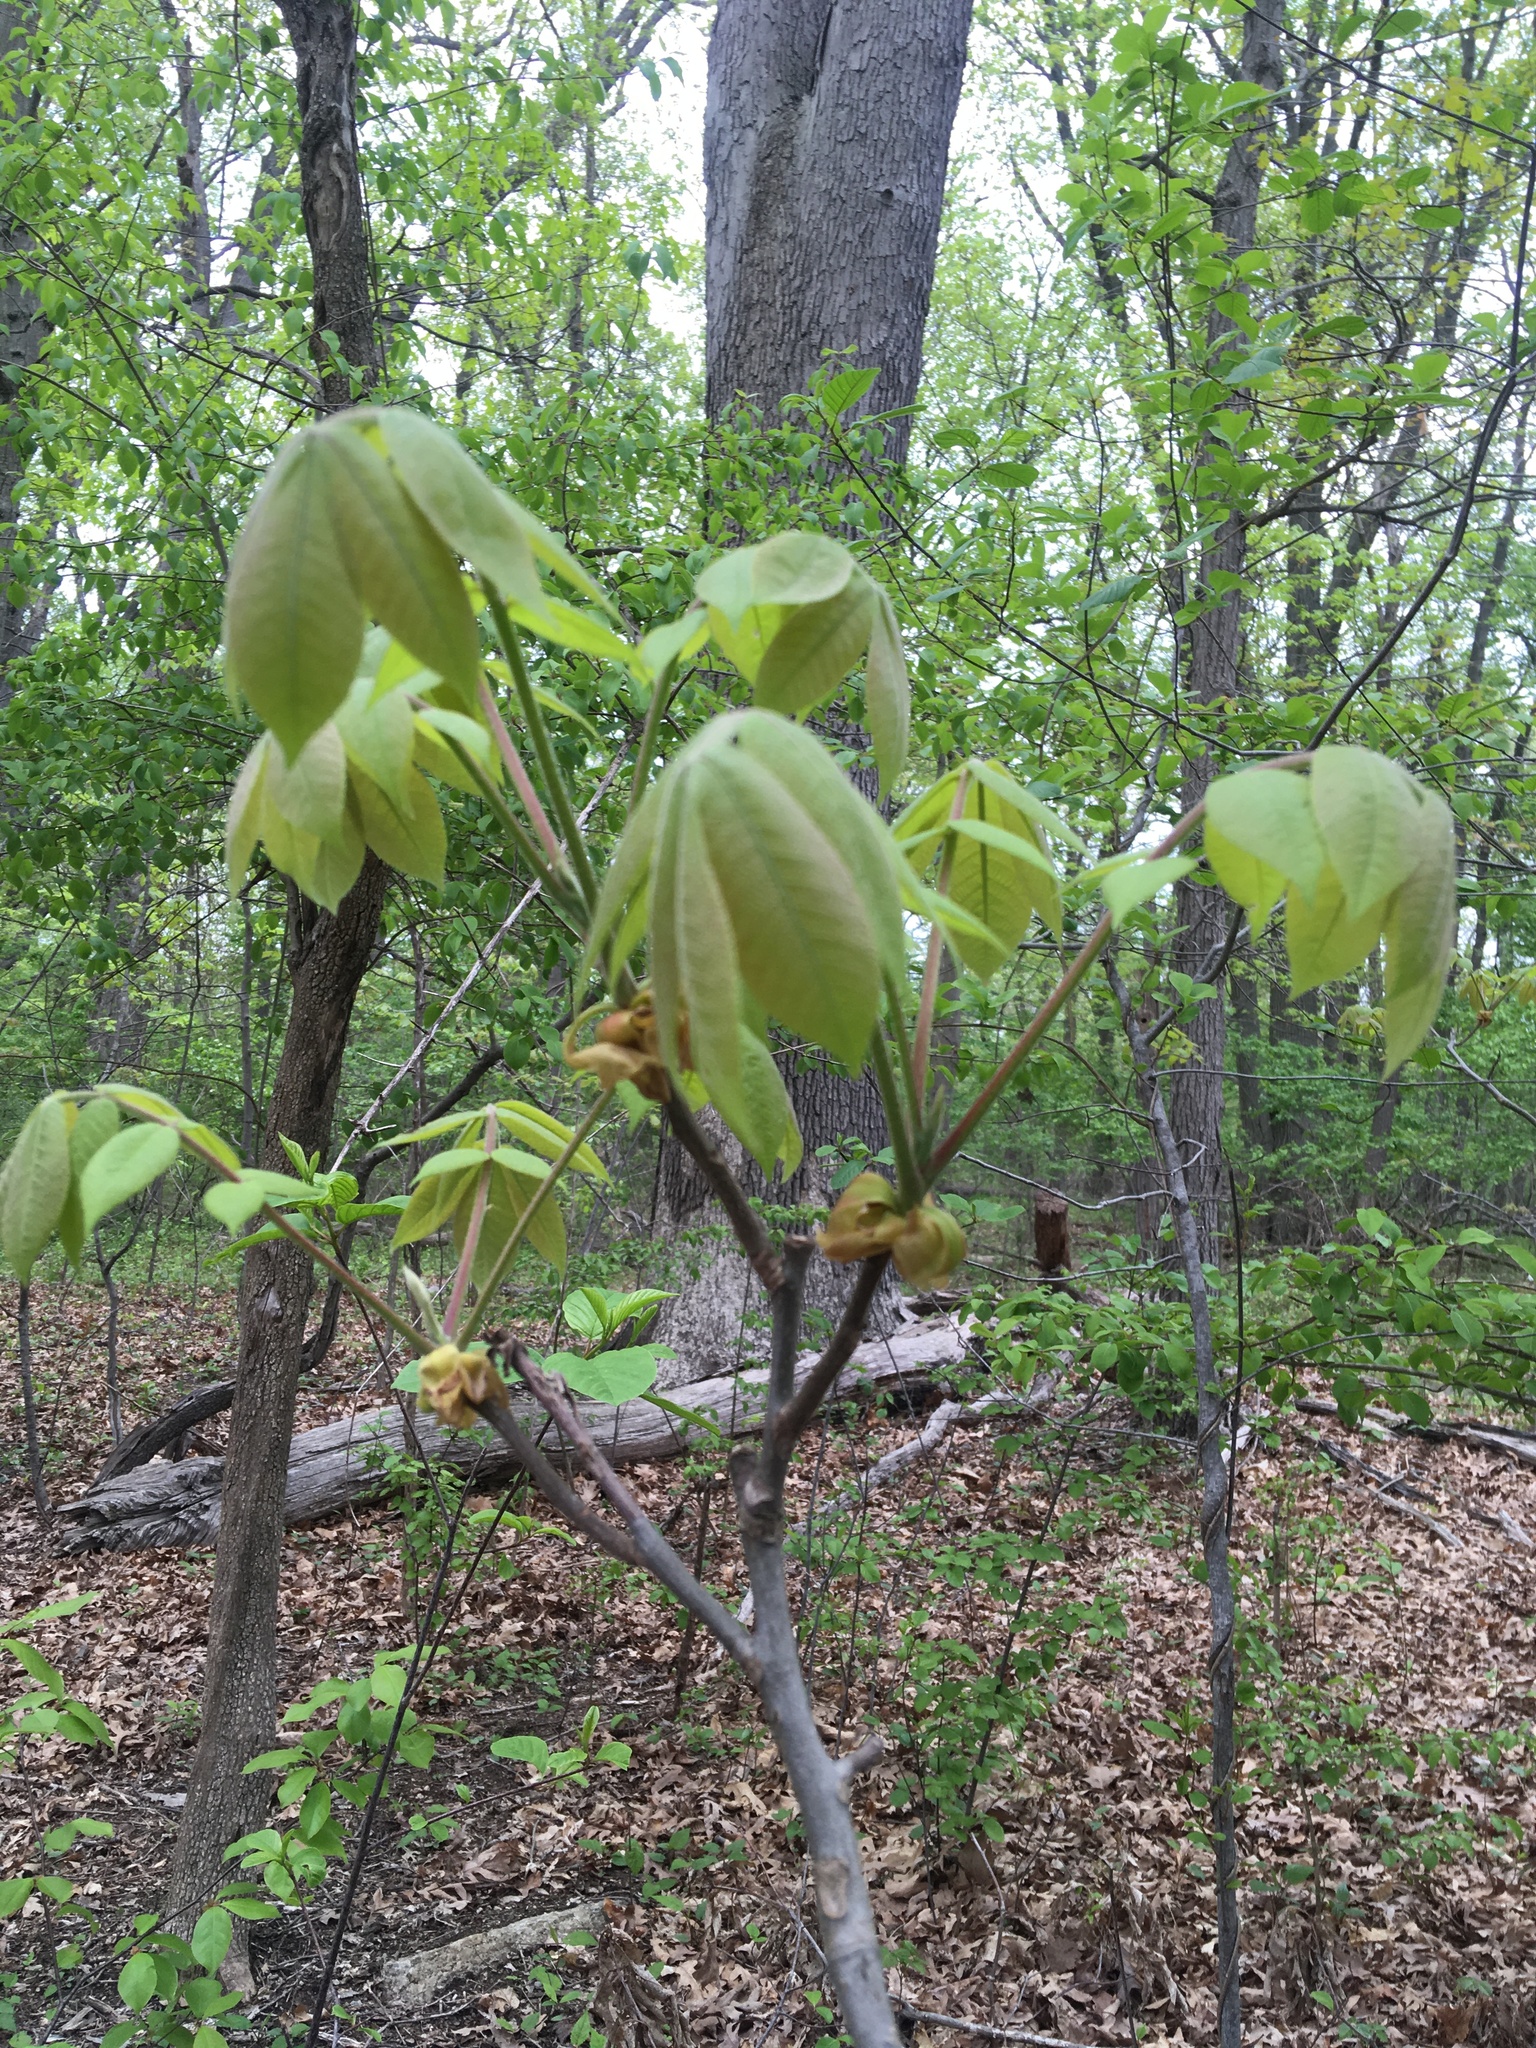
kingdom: Plantae
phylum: Tracheophyta
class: Magnoliopsida
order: Fagales
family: Juglandaceae
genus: Carya
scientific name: Carya alba
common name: Mockernut hickory
